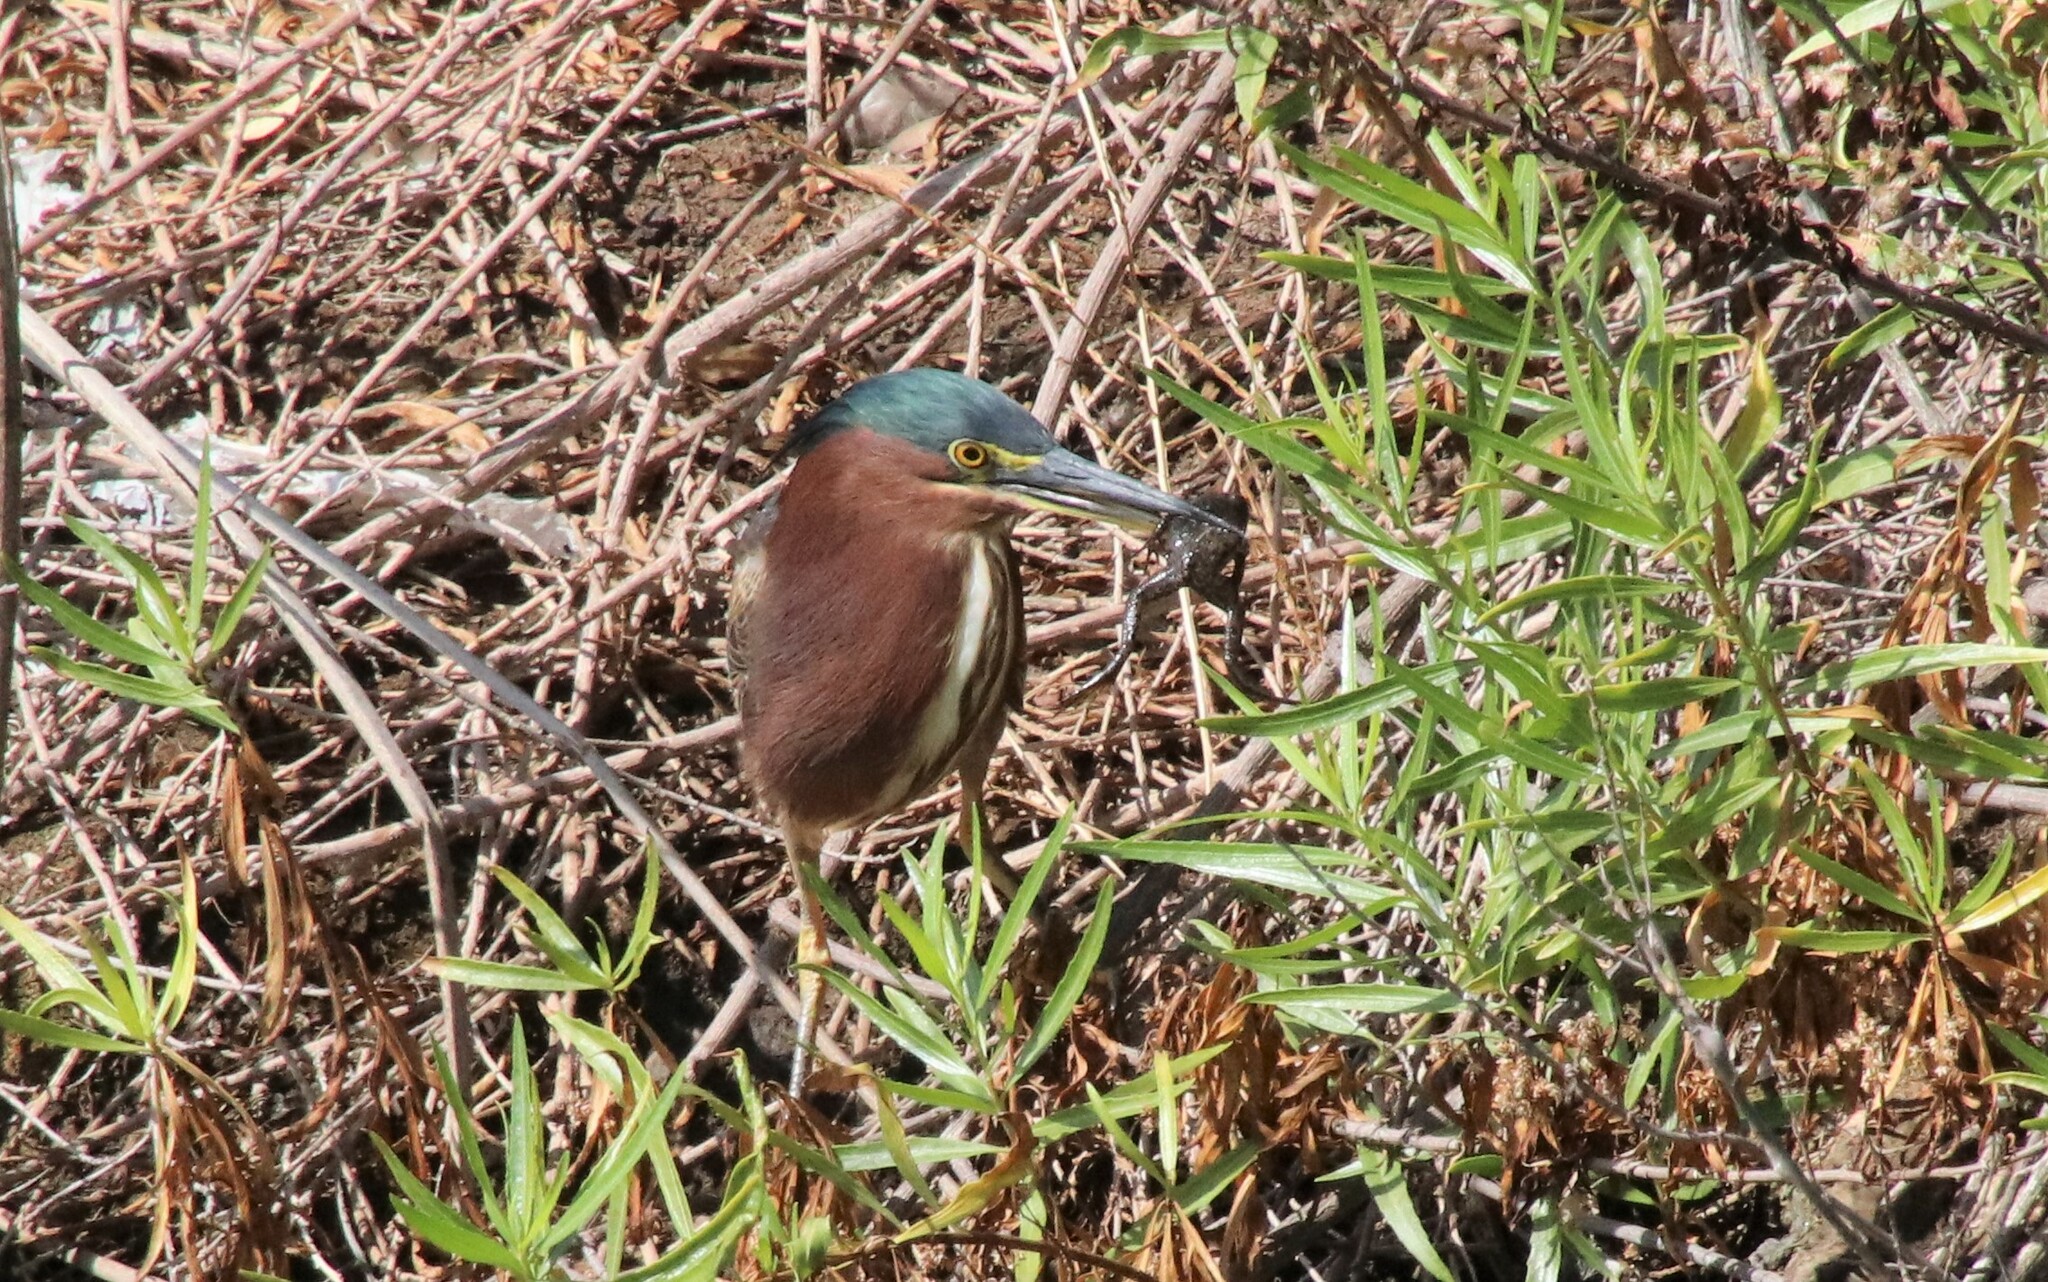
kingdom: Animalia
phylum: Chordata
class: Aves
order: Pelecaniformes
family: Ardeidae
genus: Butorides
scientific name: Butorides virescens
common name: Green heron
